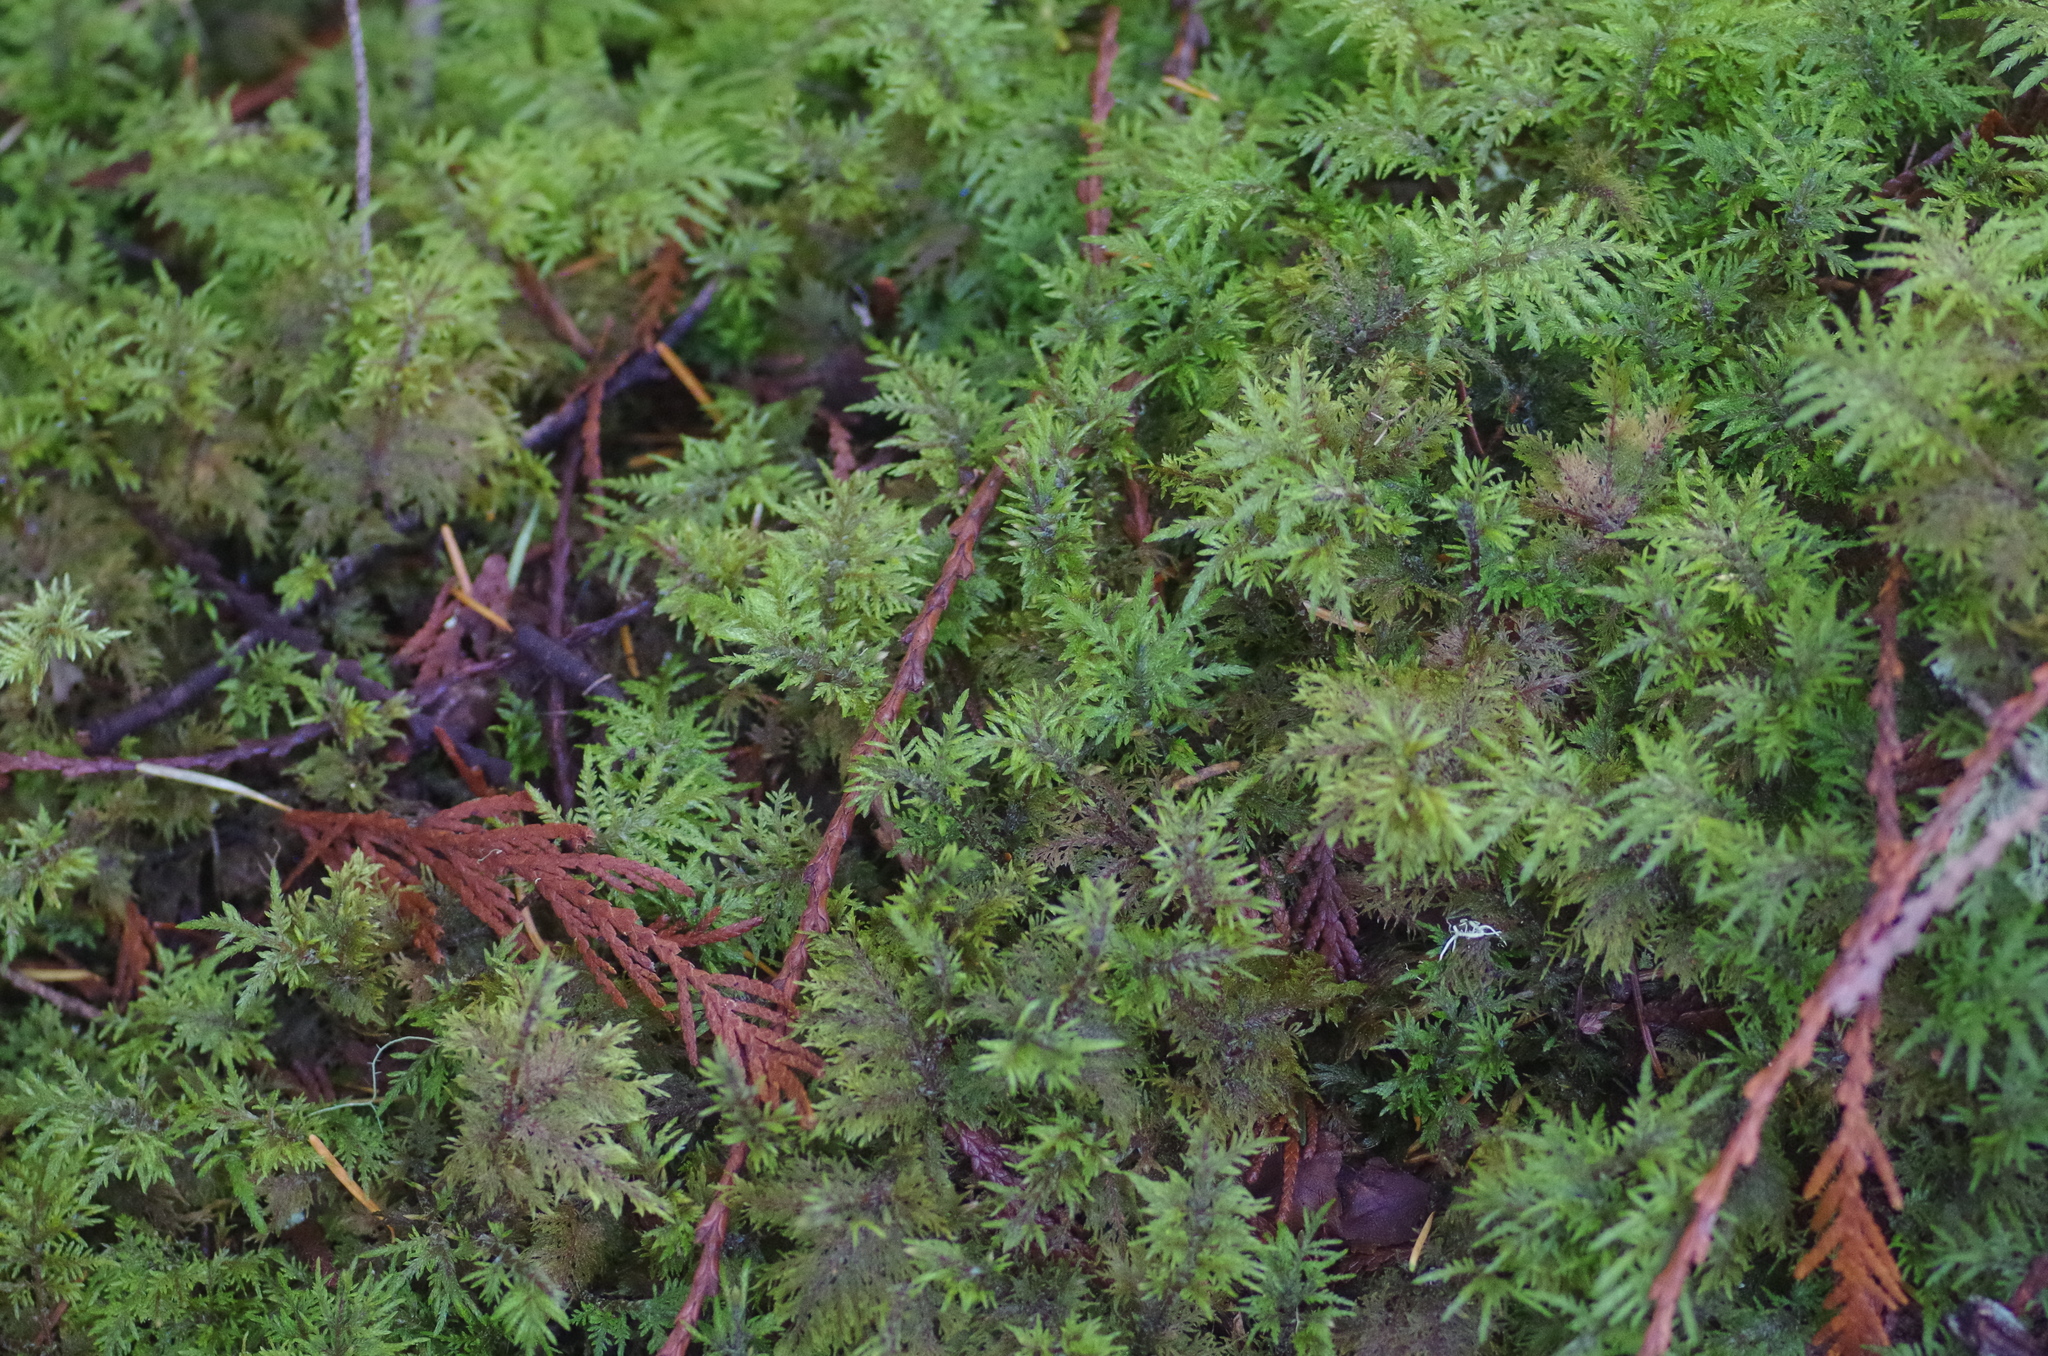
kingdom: Plantae
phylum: Bryophyta
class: Bryopsida
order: Hypnales
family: Hylocomiaceae
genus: Hylocomium
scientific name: Hylocomium splendens
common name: Stairstep moss
